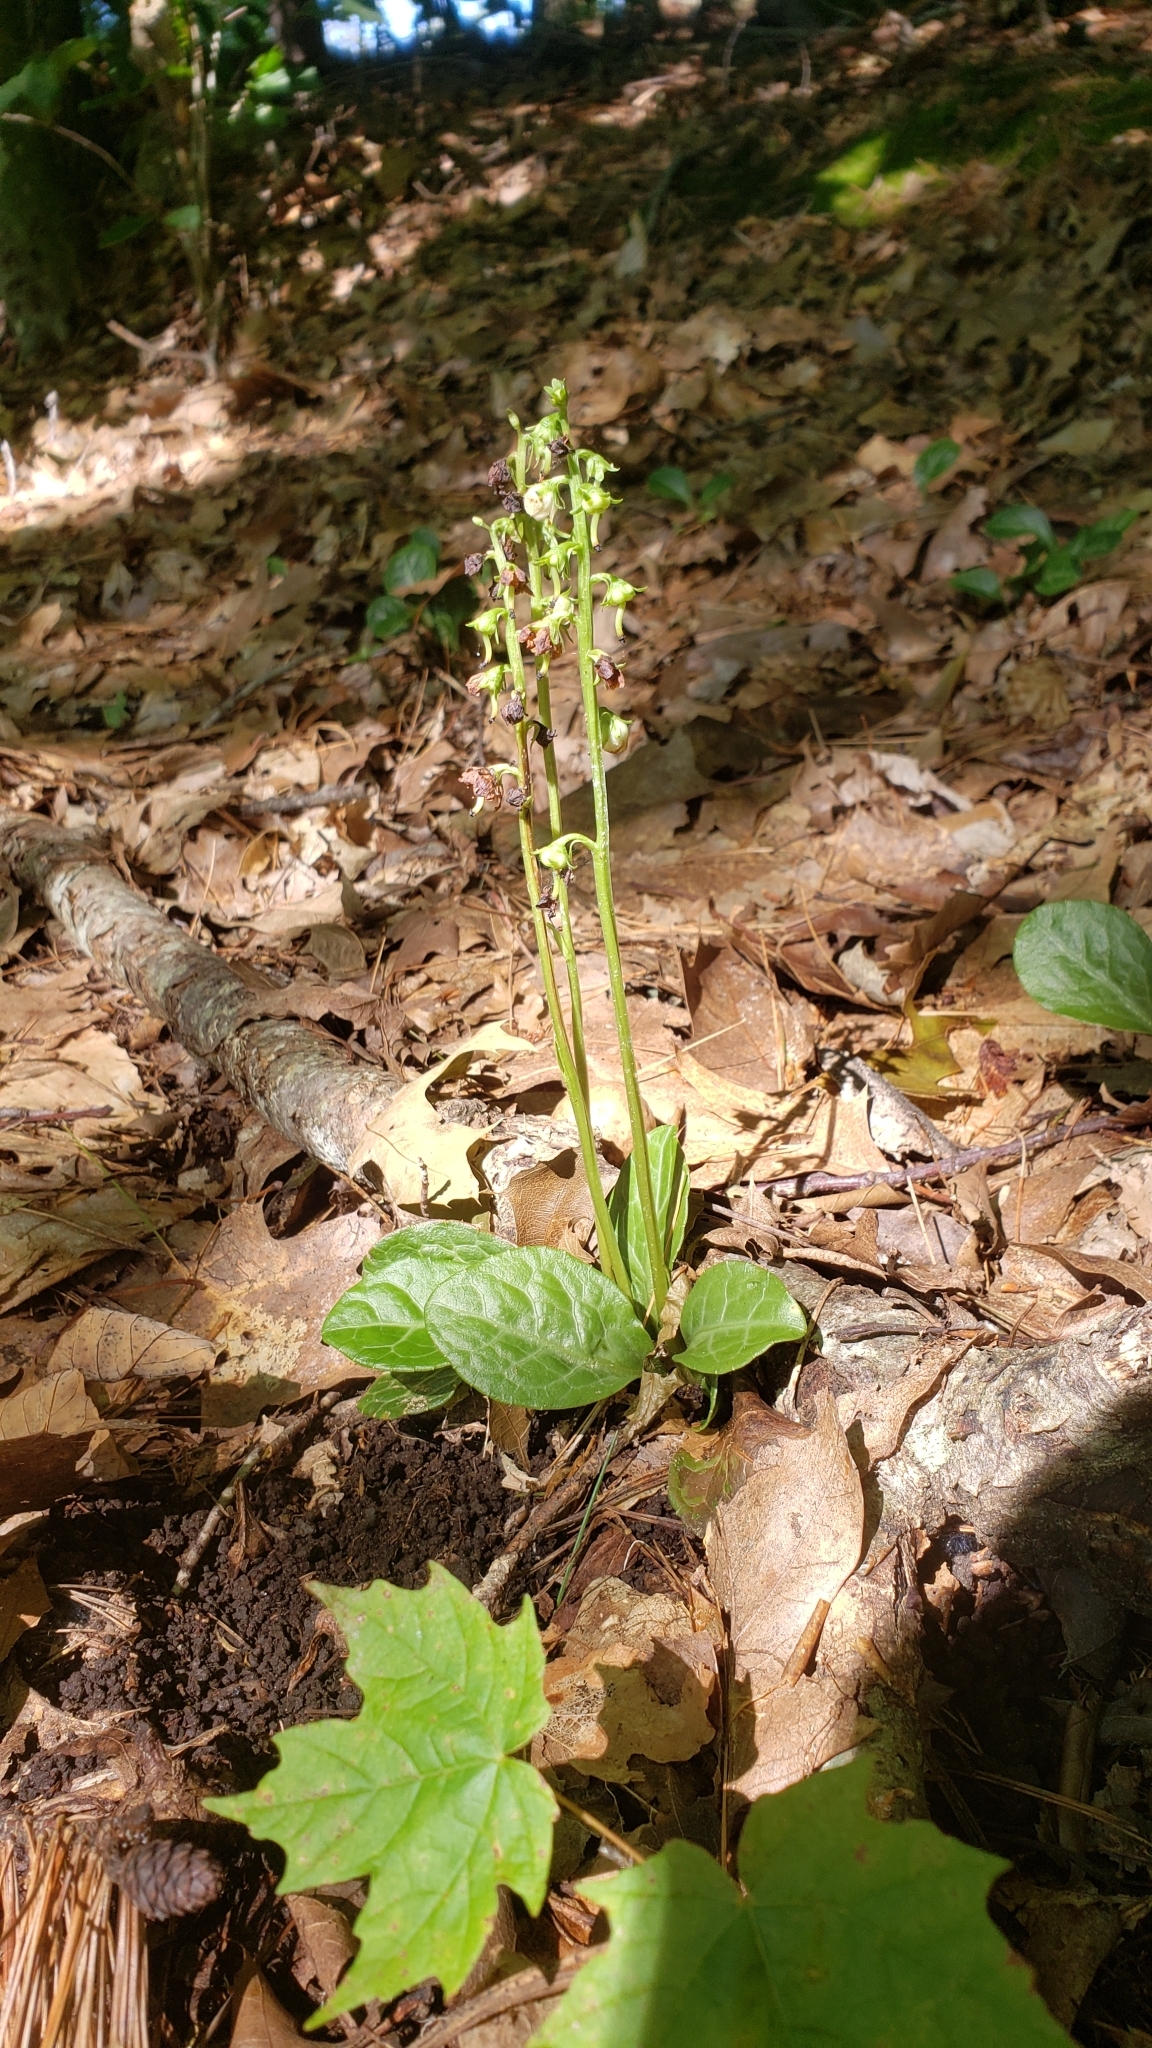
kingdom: Plantae
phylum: Tracheophyta
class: Magnoliopsida
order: Ericales
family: Ericaceae
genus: Pyrola
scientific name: Pyrola americana
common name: American wintergreen
